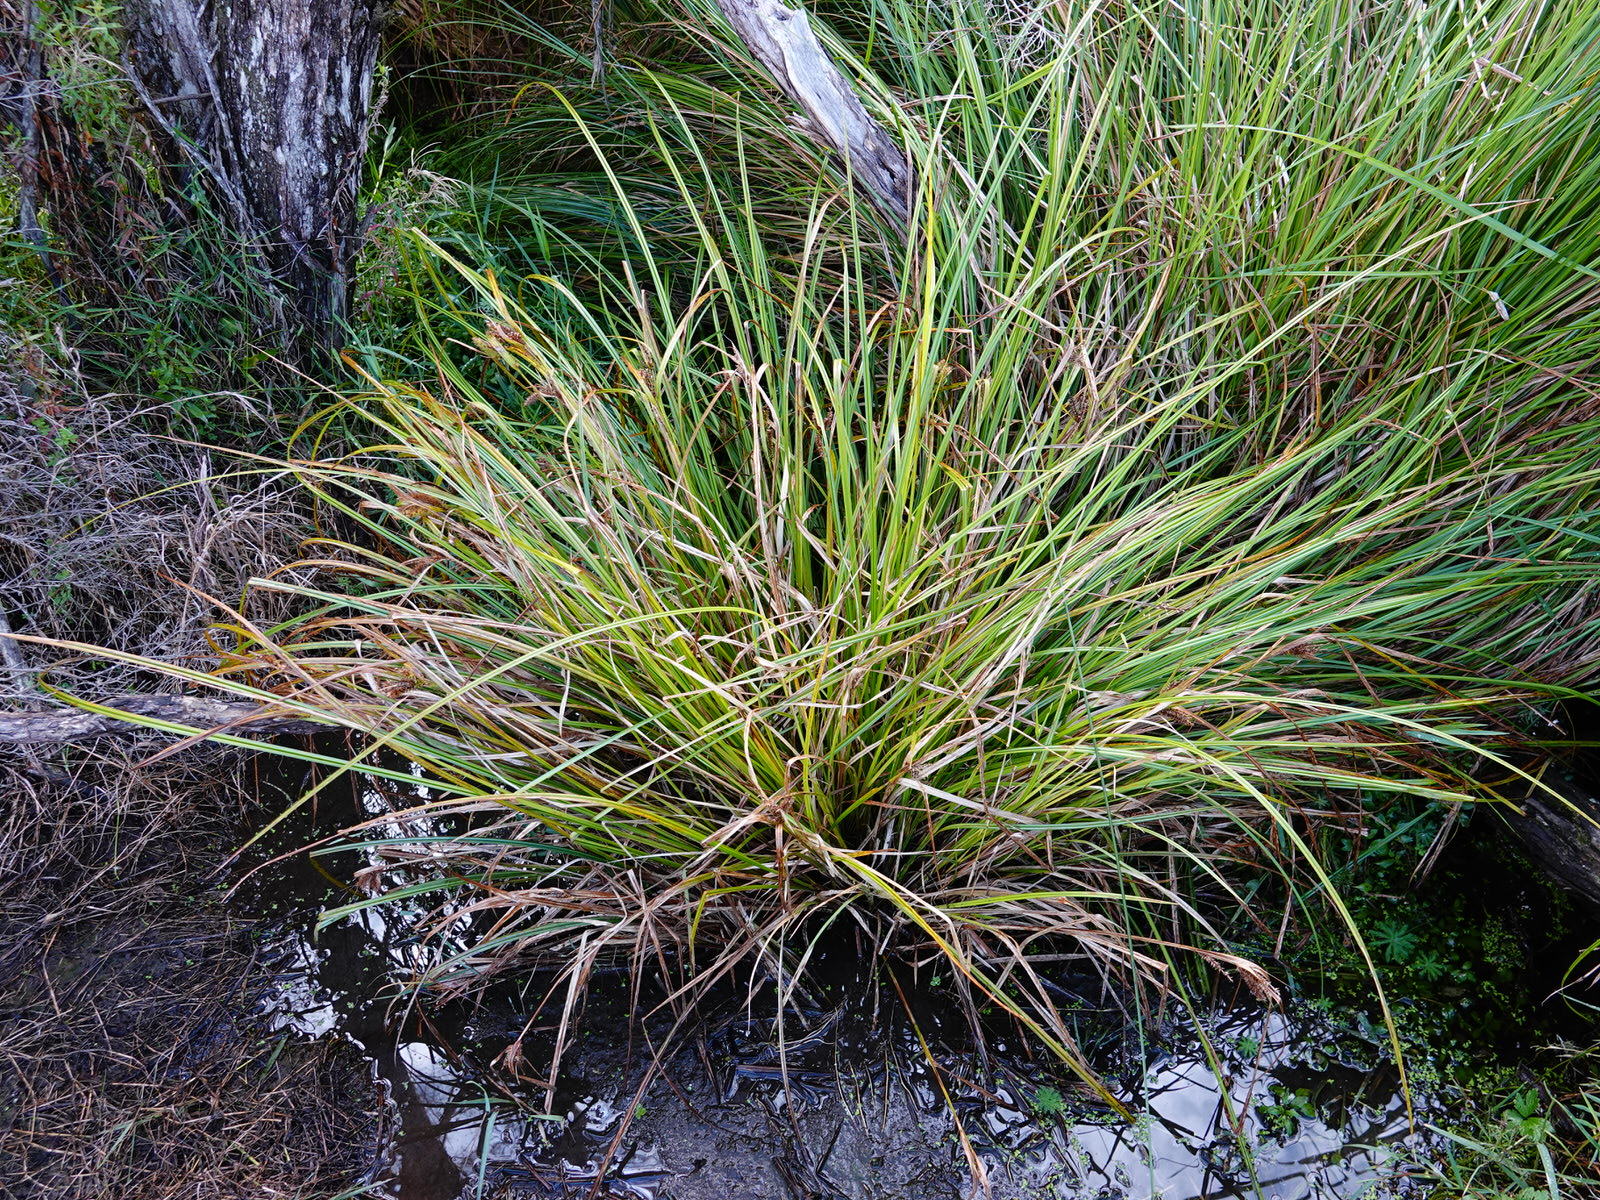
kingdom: Plantae
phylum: Tracheophyta
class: Liliopsida
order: Poales
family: Cyperaceae
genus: Carex
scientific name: Carex maorica
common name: Maori sedge
